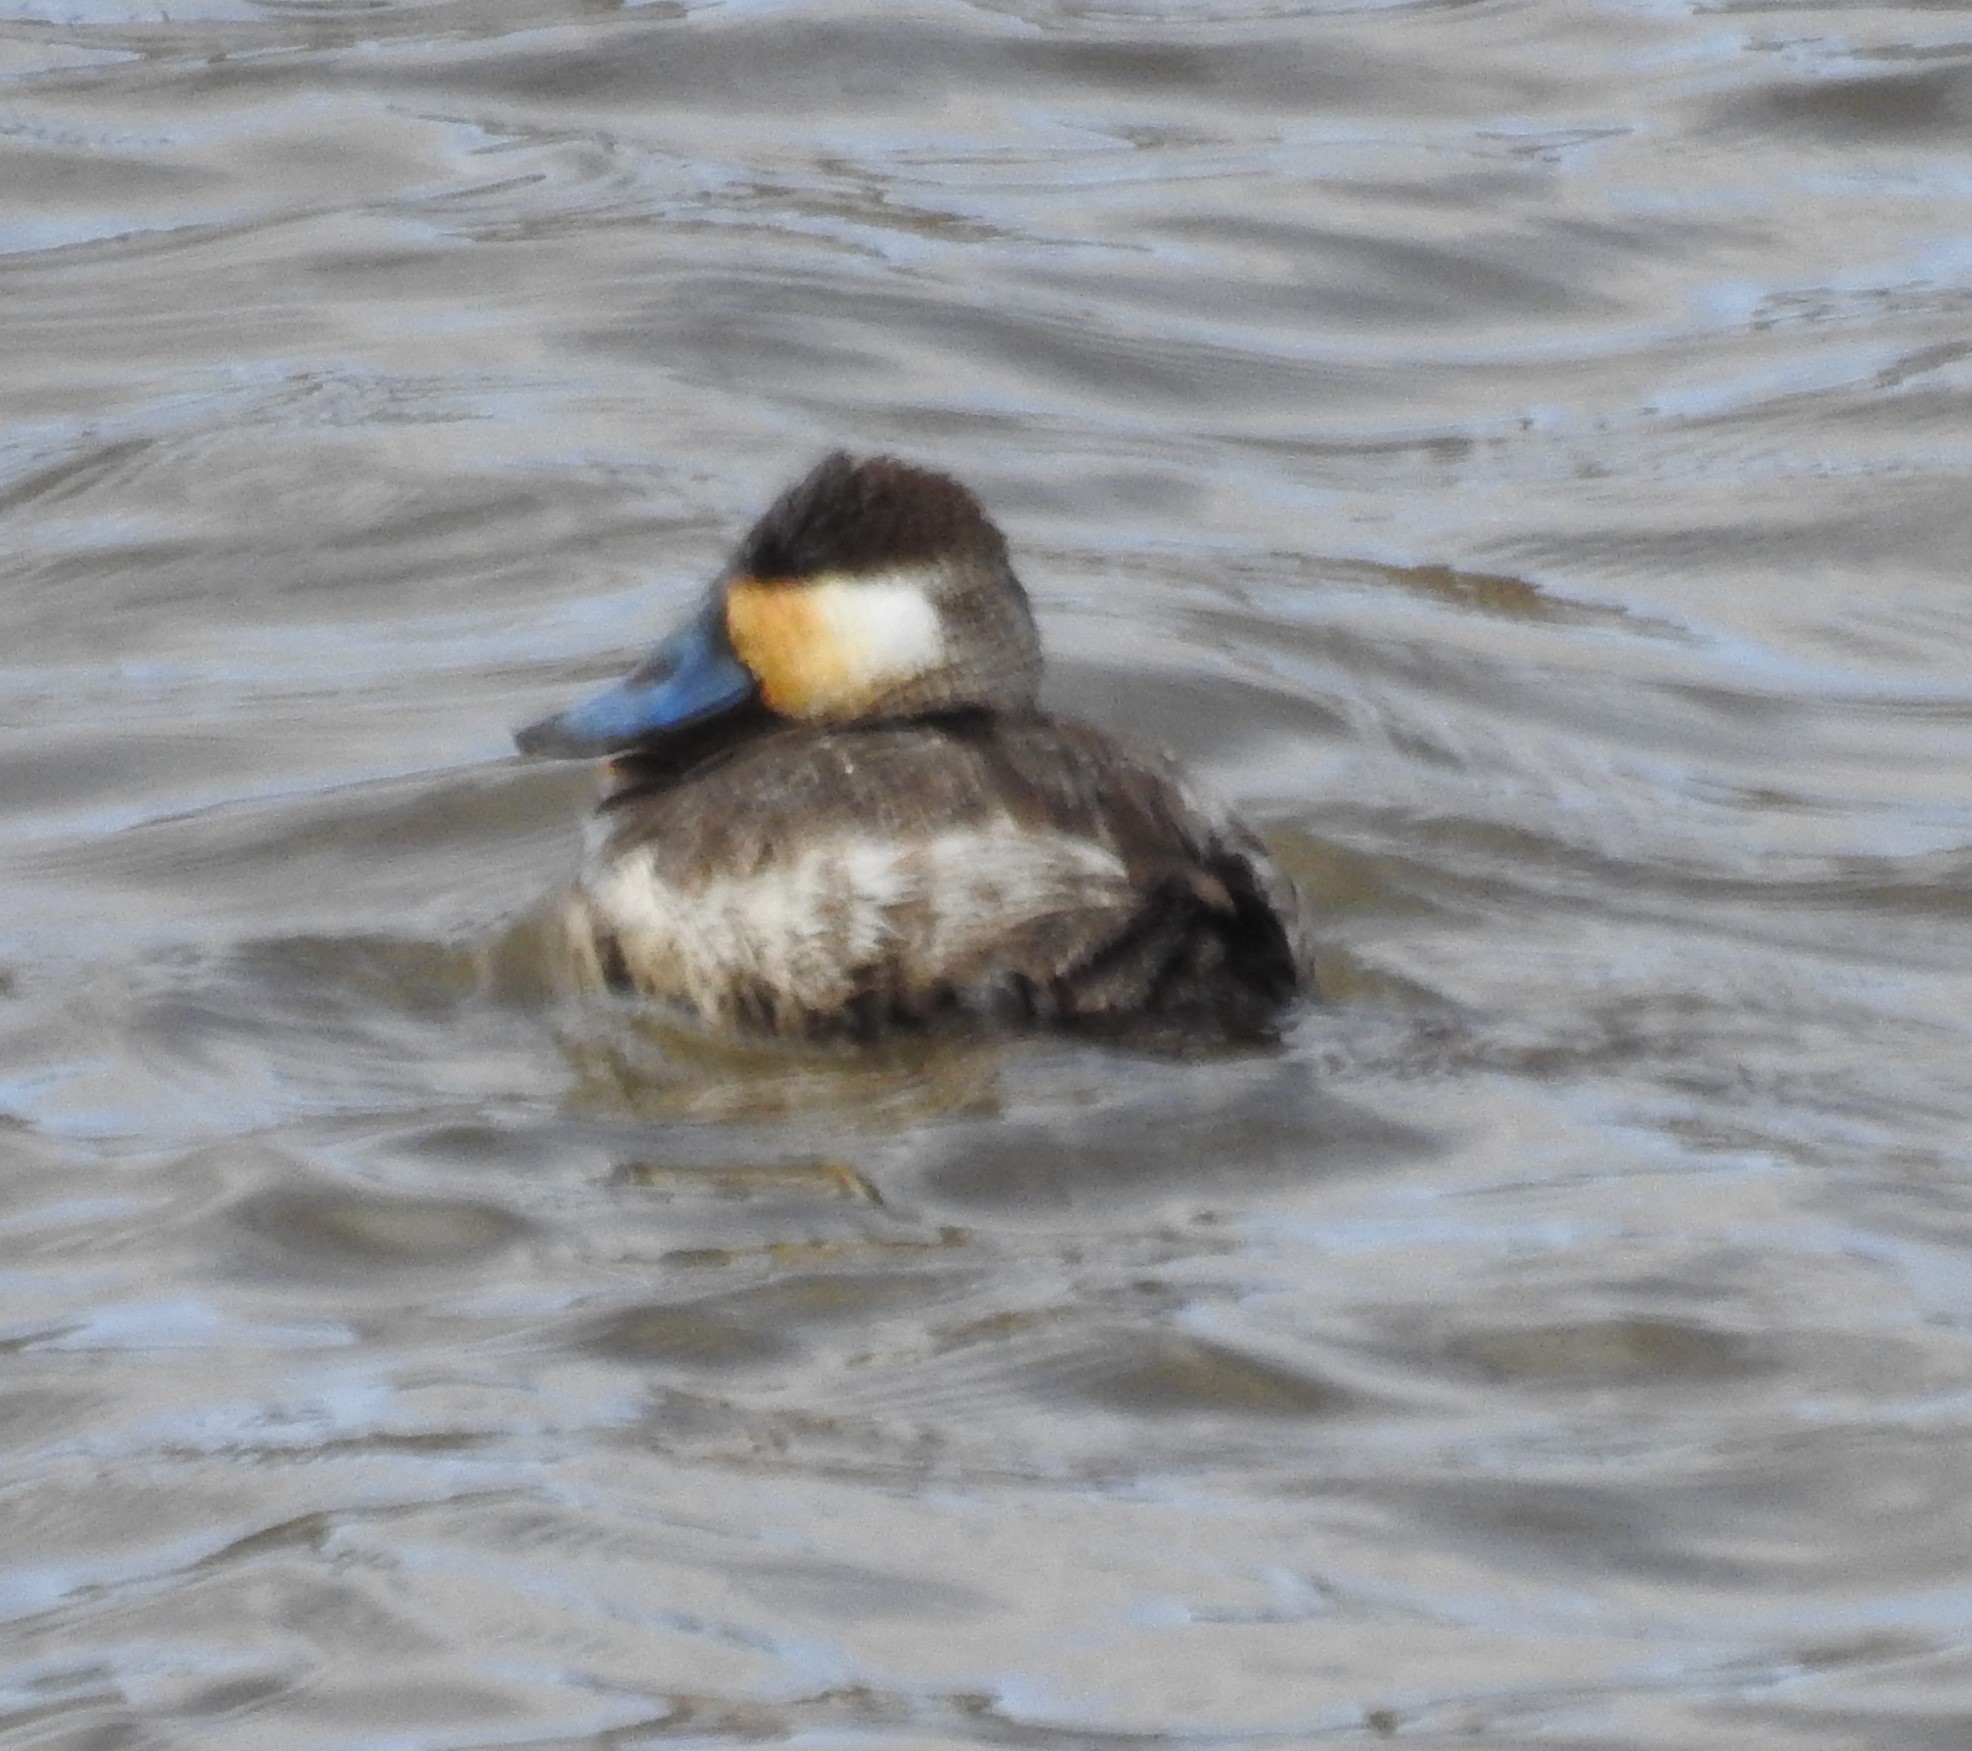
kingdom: Animalia
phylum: Chordata
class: Aves
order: Anseriformes
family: Anatidae
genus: Oxyura
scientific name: Oxyura jamaicensis
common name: Ruddy duck
